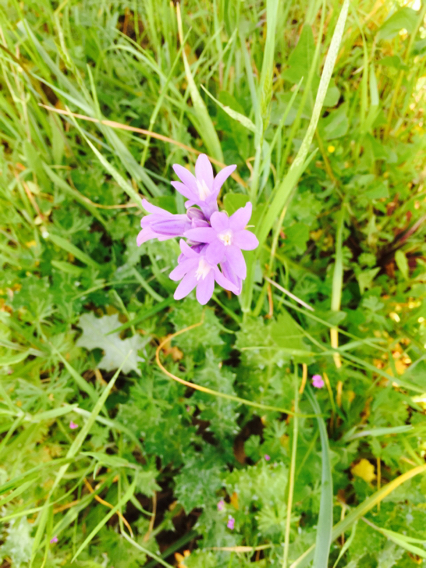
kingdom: Plantae
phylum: Tracheophyta
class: Liliopsida
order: Asparagales
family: Asparagaceae
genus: Dipterostemon
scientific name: Dipterostemon capitatus
